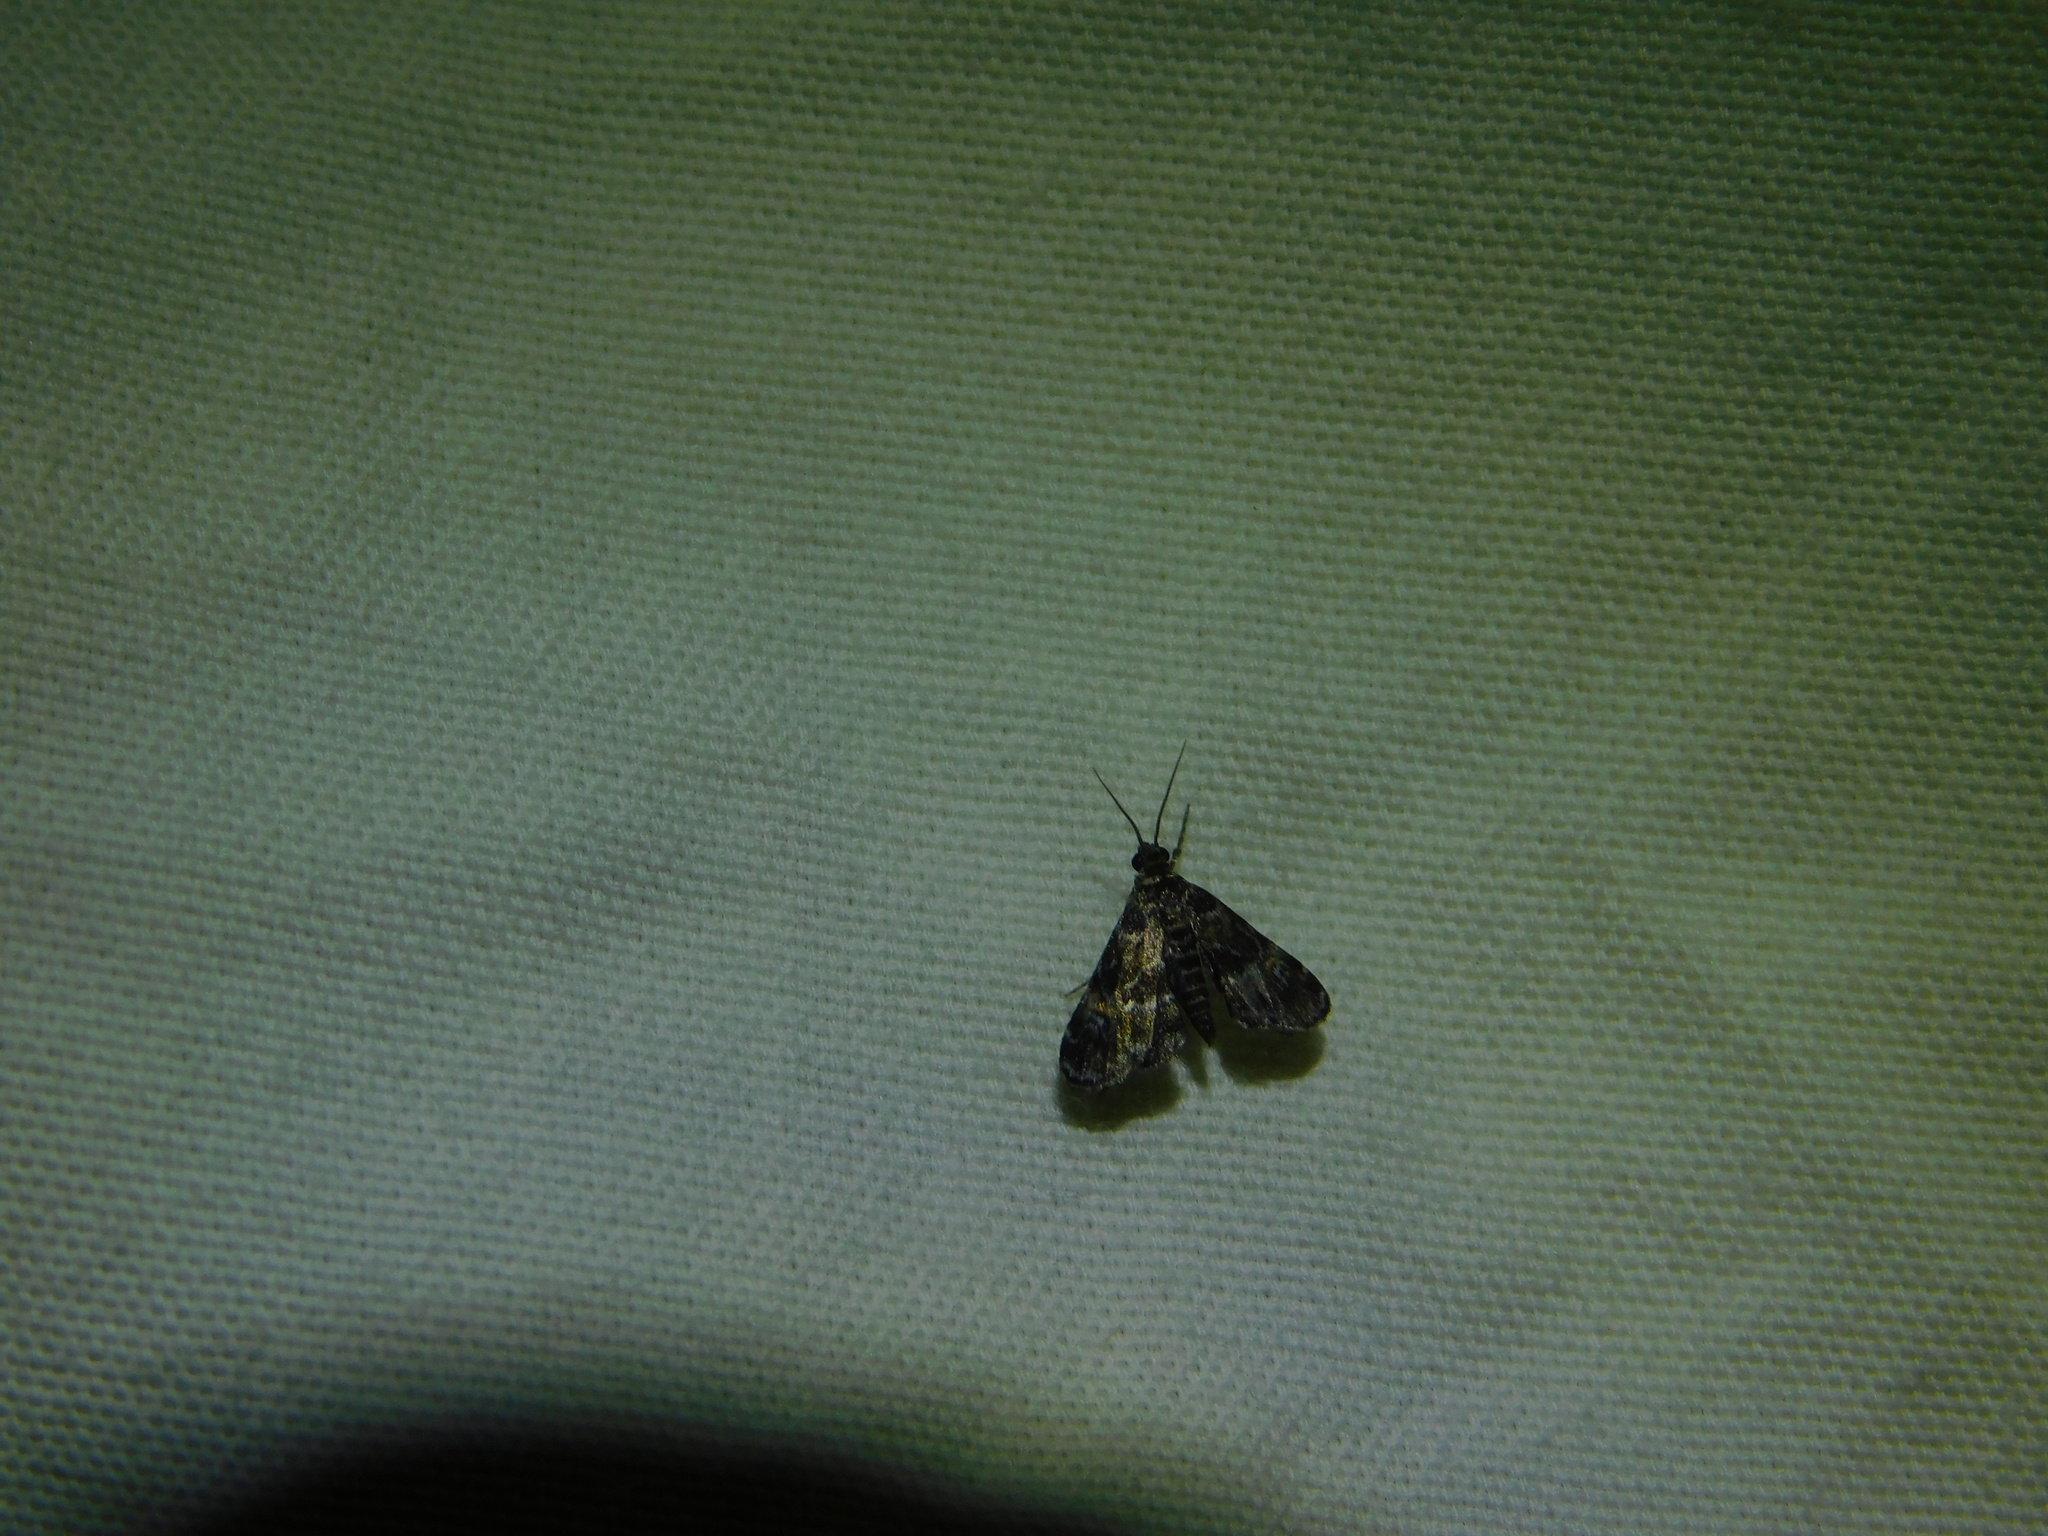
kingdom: Animalia
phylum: Arthropoda
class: Insecta
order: Lepidoptera
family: Crambidae
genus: Elophila
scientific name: Elophila obliteralis
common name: Waterlily leafcutter moth
